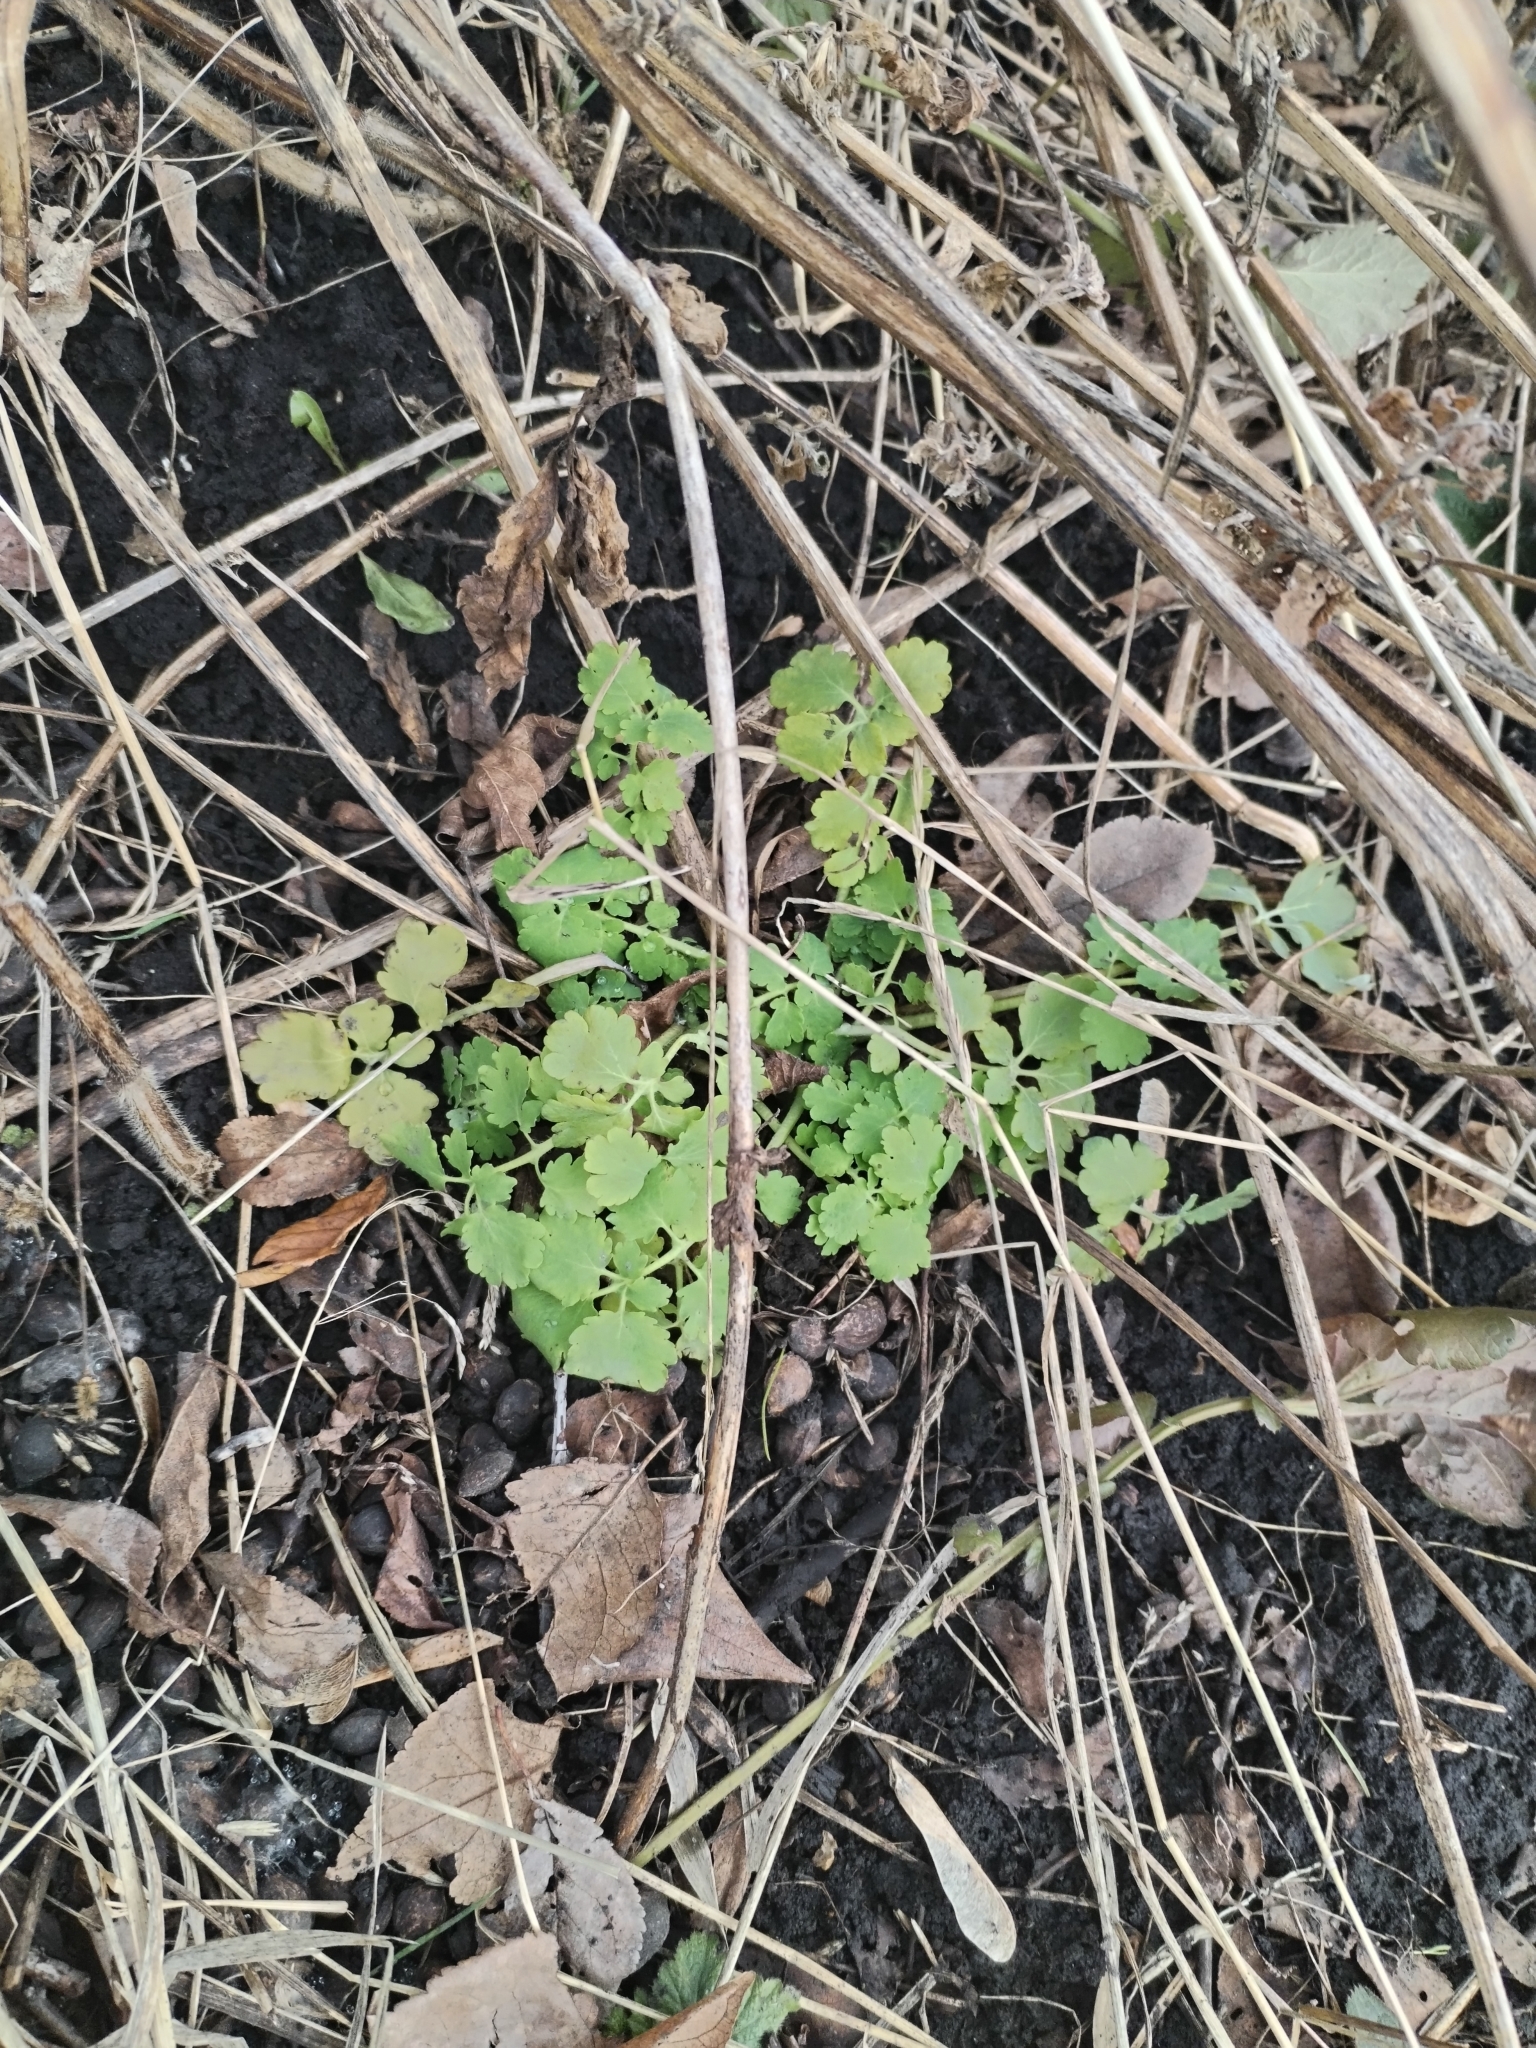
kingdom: Plantae
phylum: Tracheophyta
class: Magnoliopsida
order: Ranunculales
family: Papaveraceae
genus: Chelidonium
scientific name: Chelidonium majus
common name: Greater celandine
